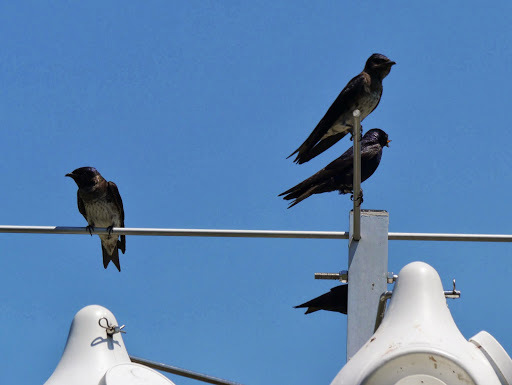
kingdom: Animalia
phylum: Chordata
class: Aves
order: Passeriformes
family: Hirundinidae
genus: Progne
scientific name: Progne subis
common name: Purple martin
